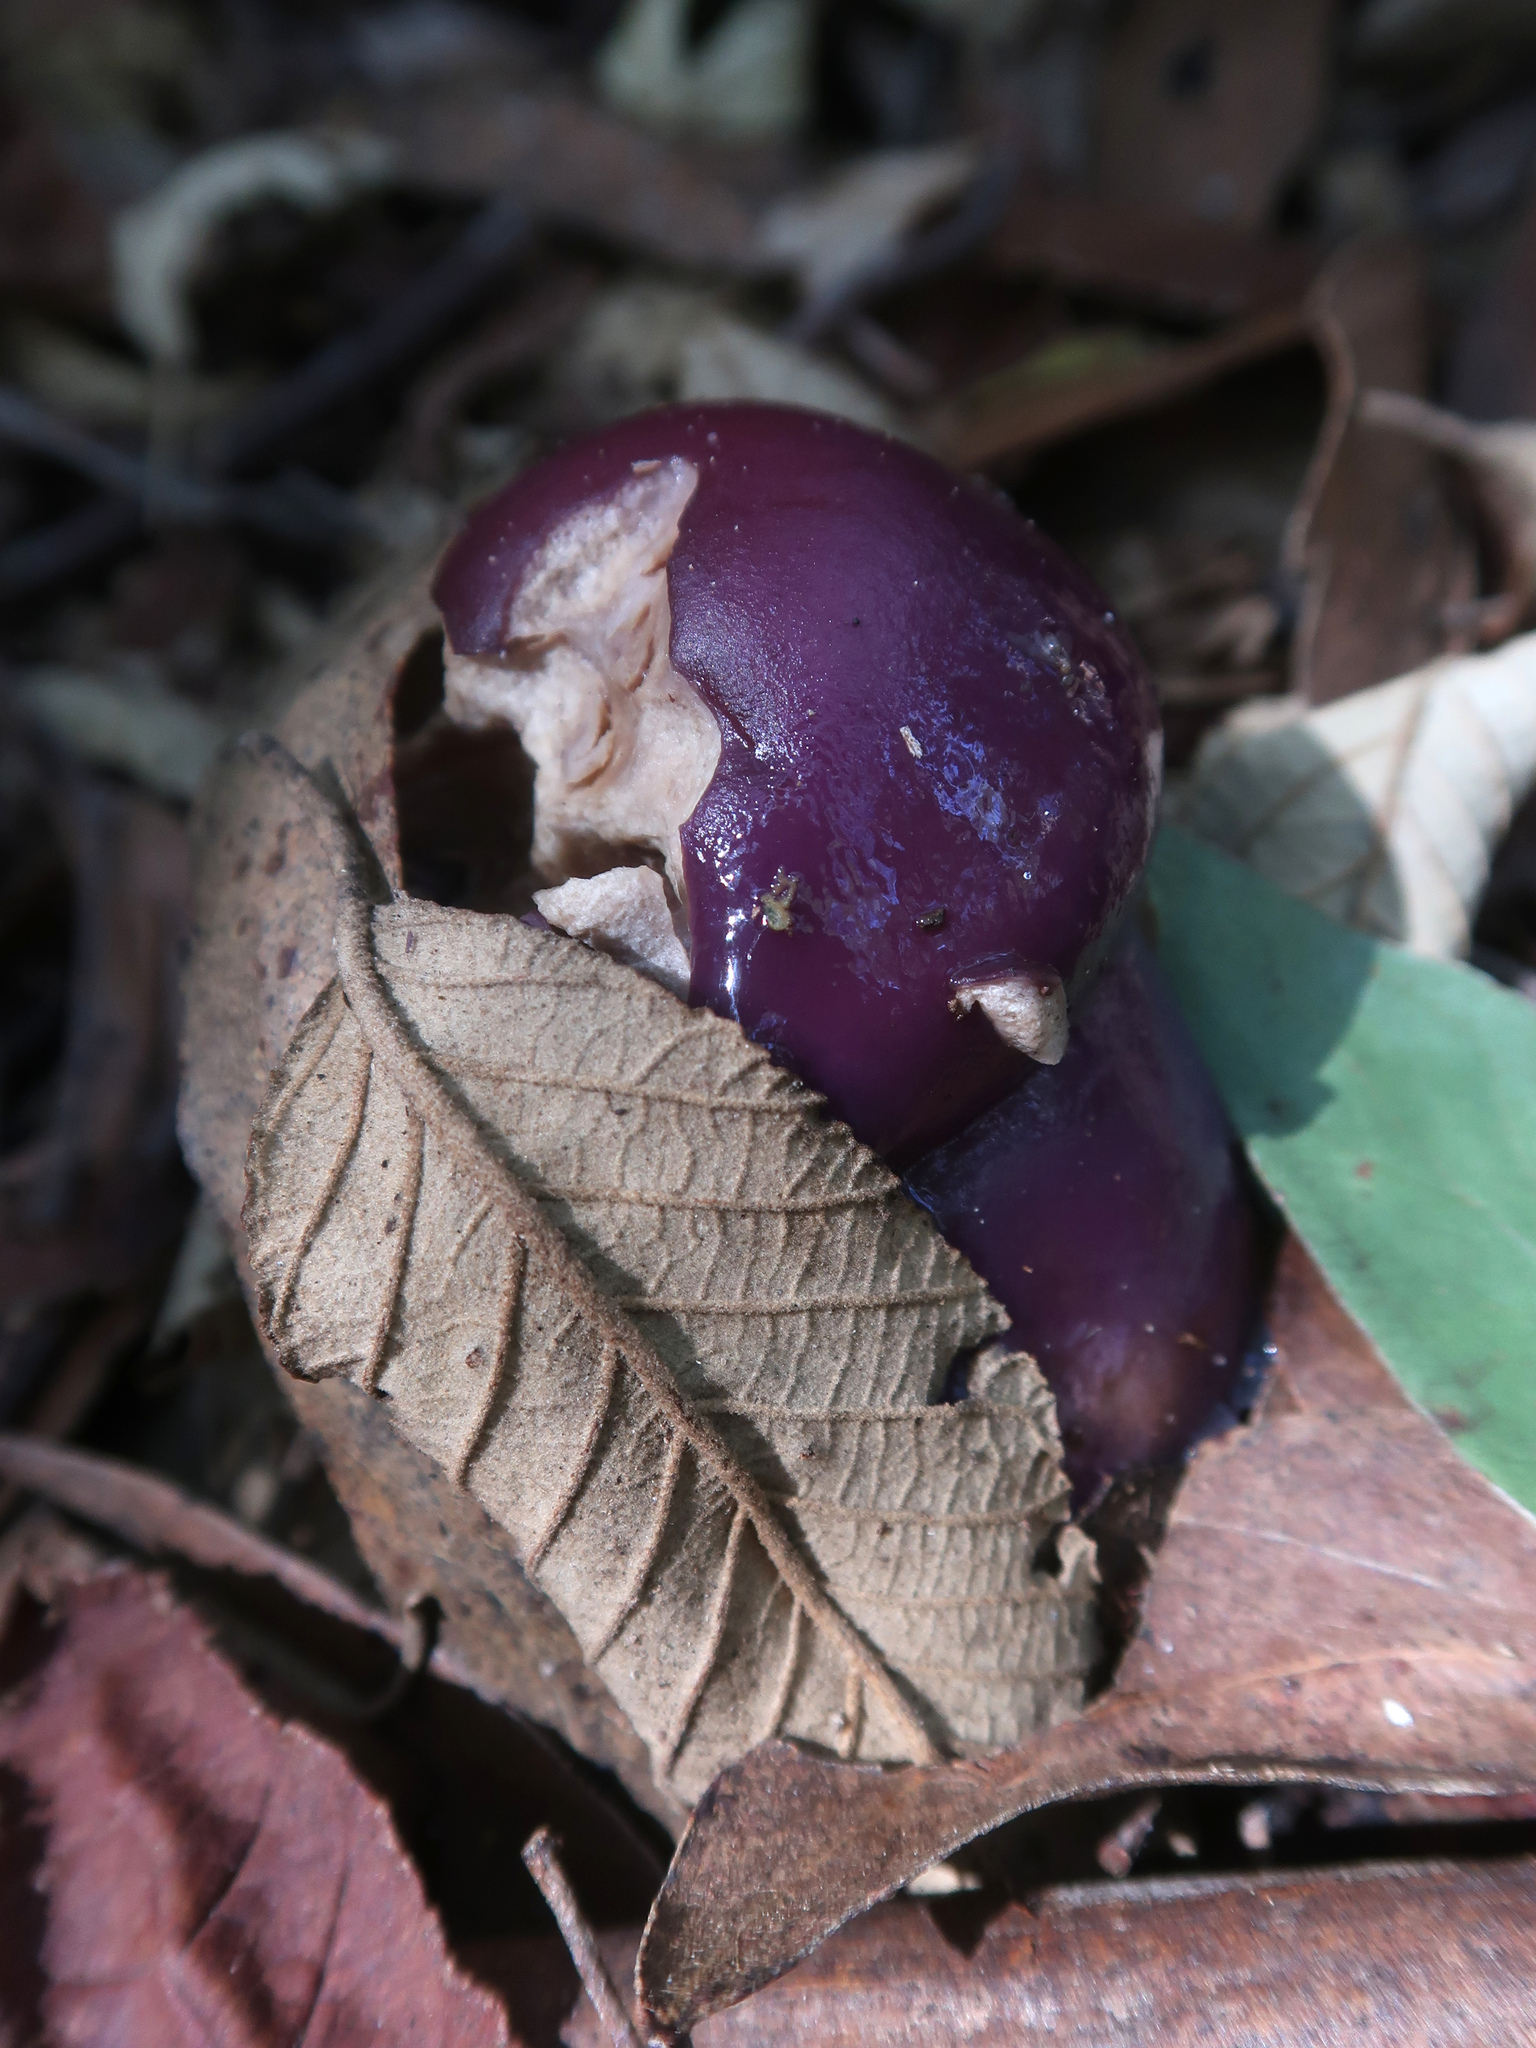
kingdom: Fungi
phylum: Basidiomycota
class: Agaricomycetes
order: Agaricales
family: Cortinariaceae
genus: Cortinarius
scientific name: Cortinarius archeri
